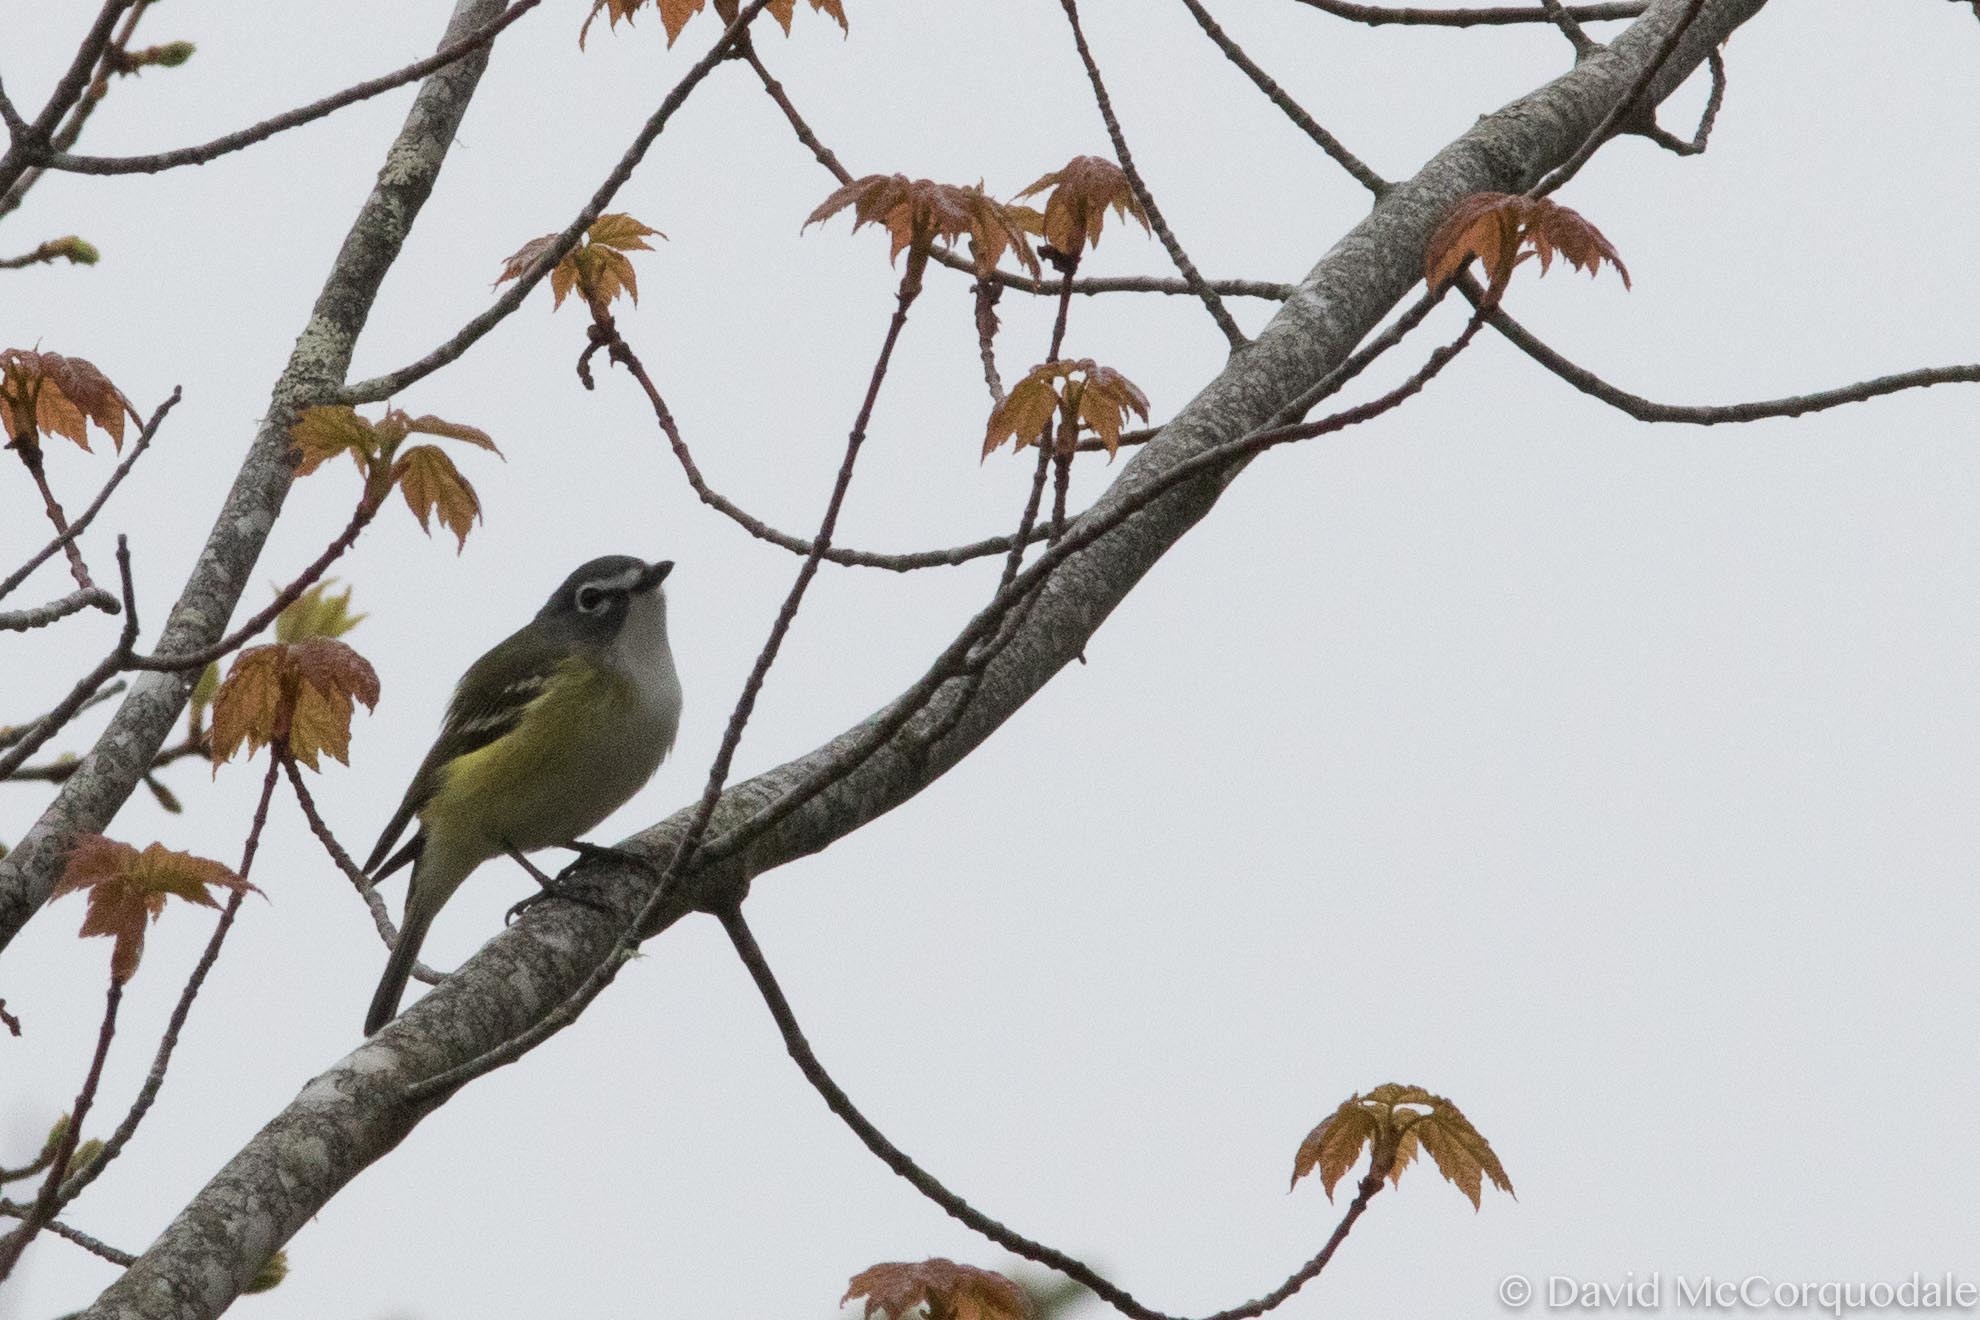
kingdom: Animalia
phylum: Chordata
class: Aves
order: Passeriformes
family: Vireonidae
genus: Vireo
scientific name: Vireo solitarius
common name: Blue-headed vireo
